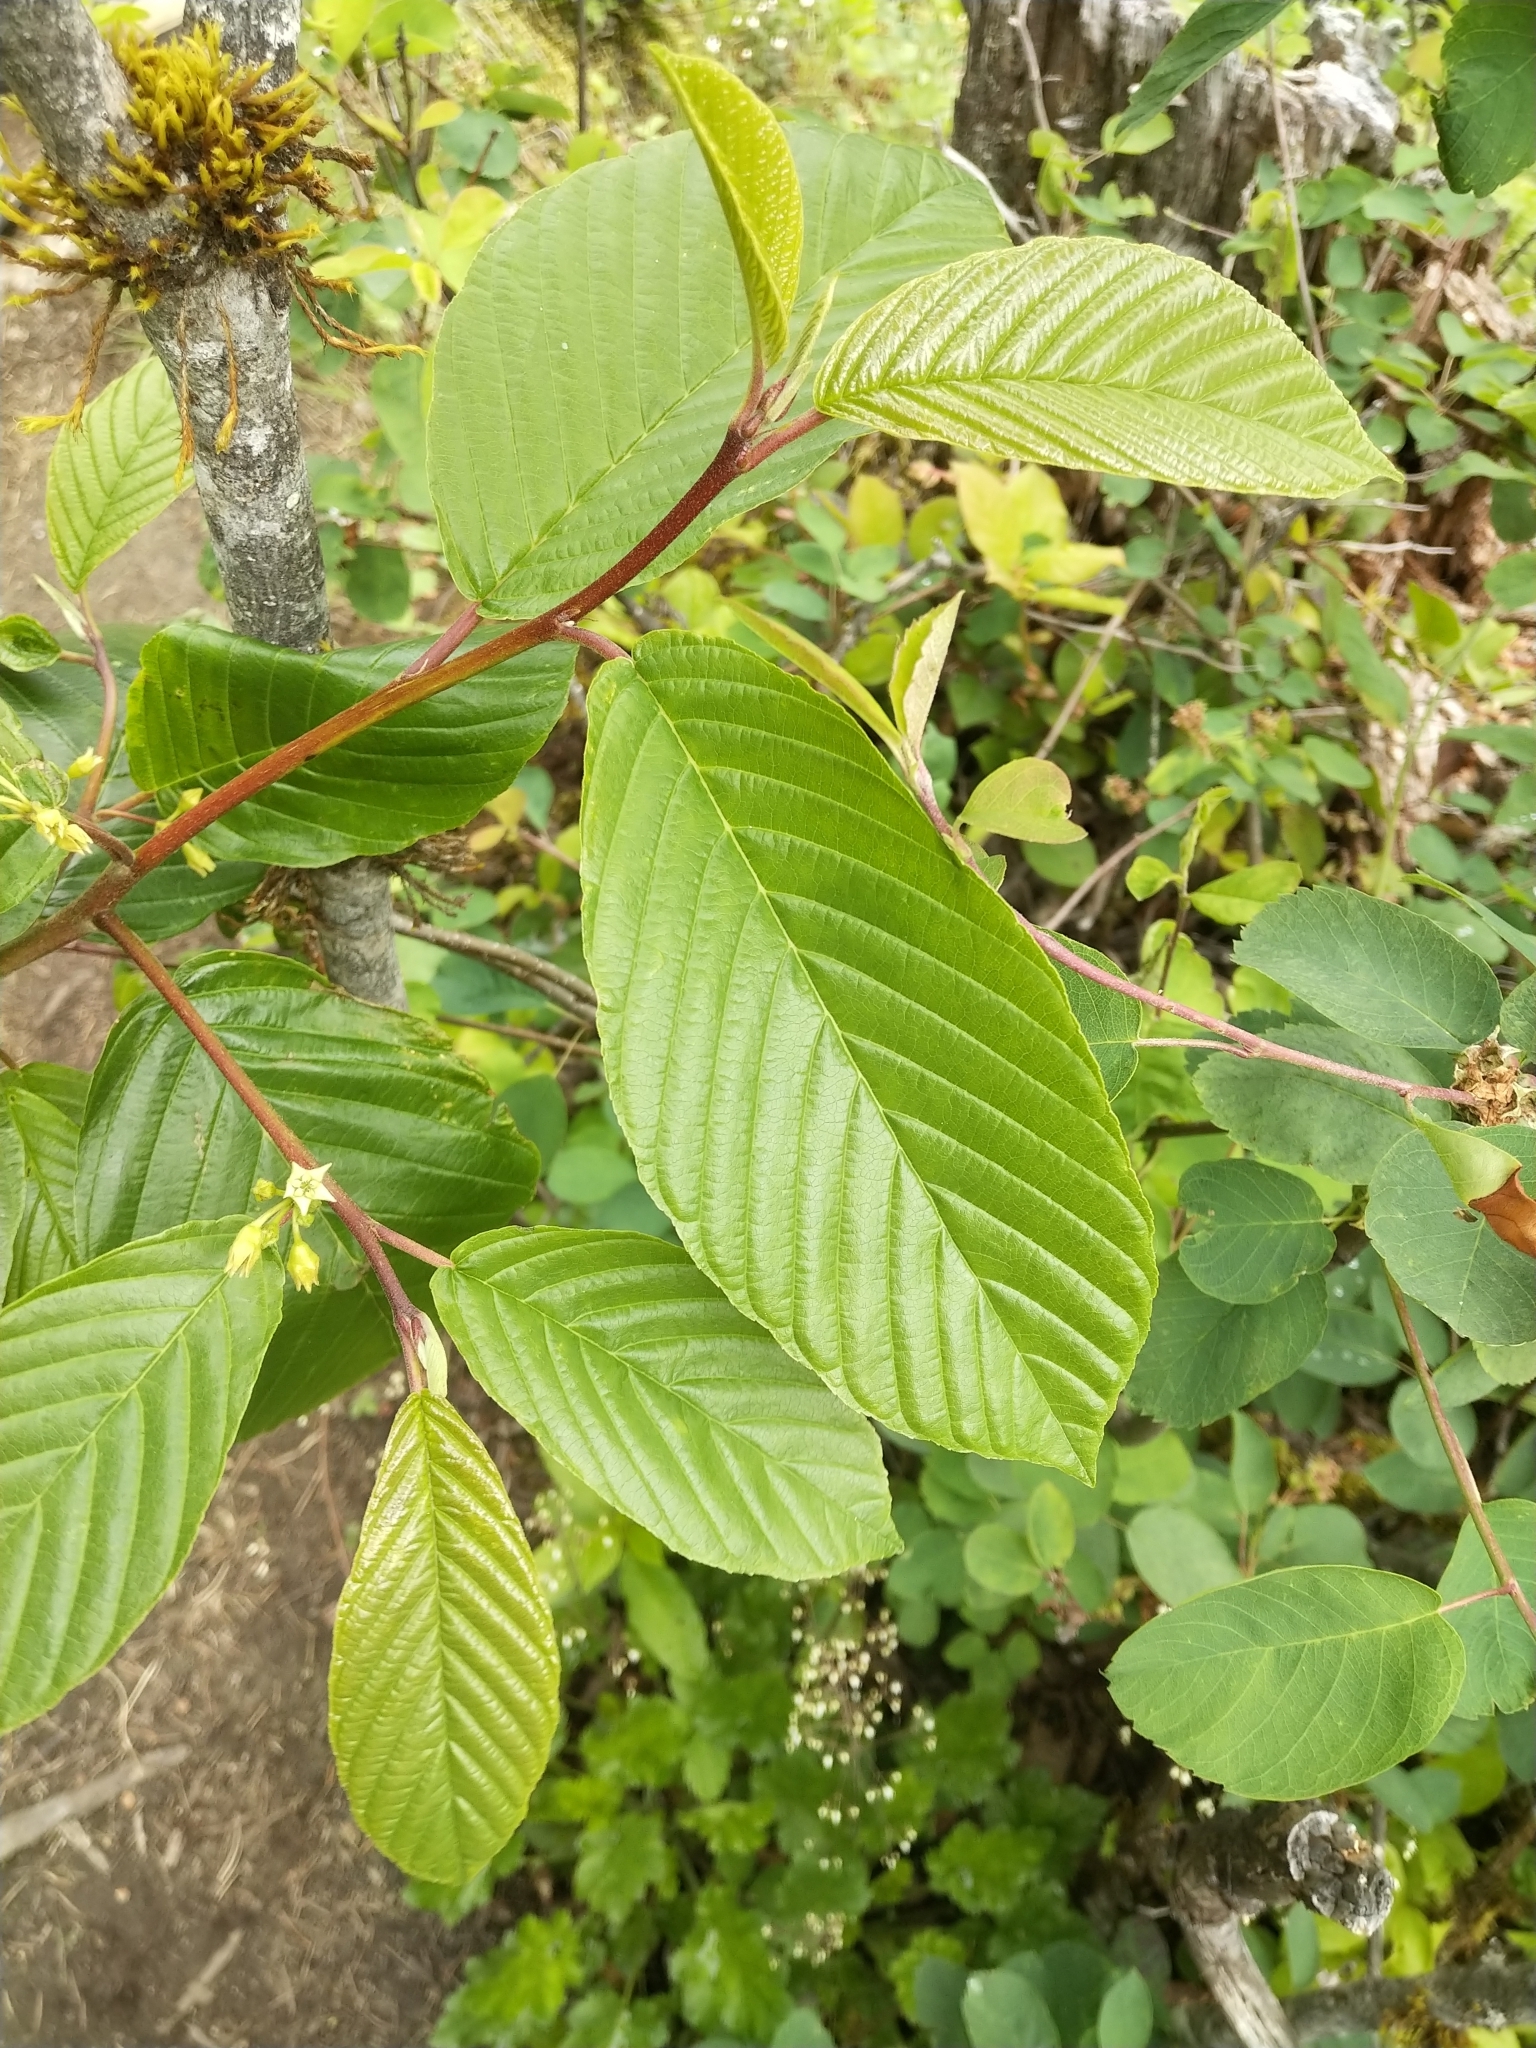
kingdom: Plantae
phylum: Tracheophyta
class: Magnoliopsida
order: Rosales
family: Rhamnaceae
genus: Frangula
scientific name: Frangula purshiana
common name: Cascara buckthorn
